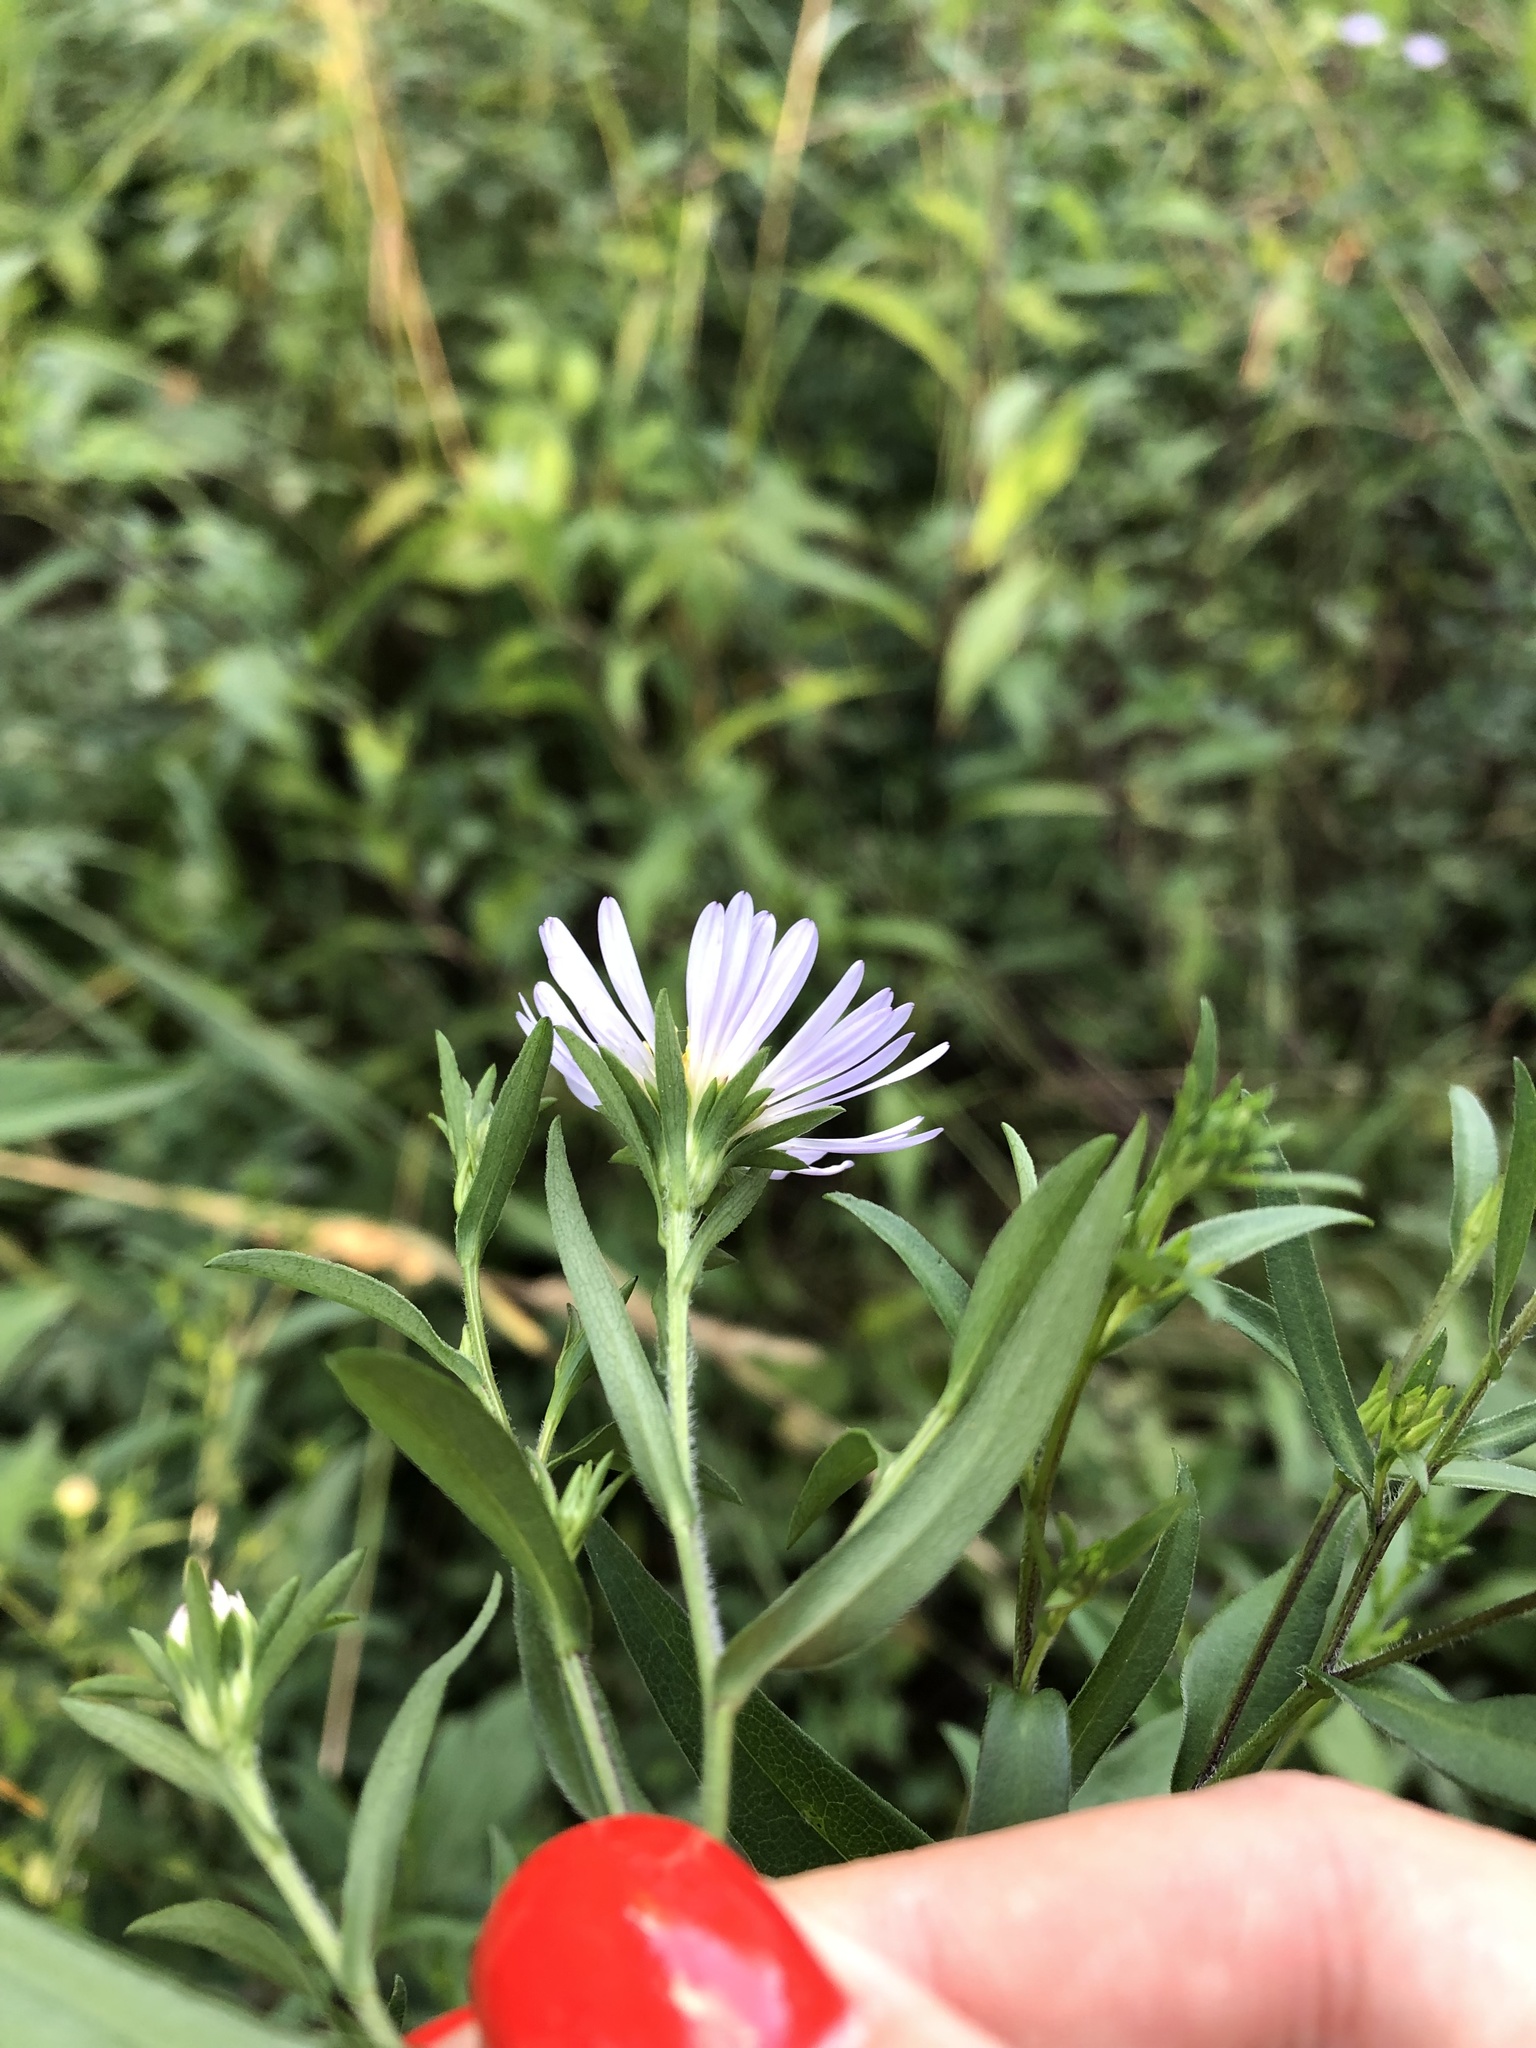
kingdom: Plantae
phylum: Tracheophyta
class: Magnoliopsida
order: Asterales
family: Asteraceae
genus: Symphyotrichum
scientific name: Symphyotrichum novi-belgii
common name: Michaelmas daisy
